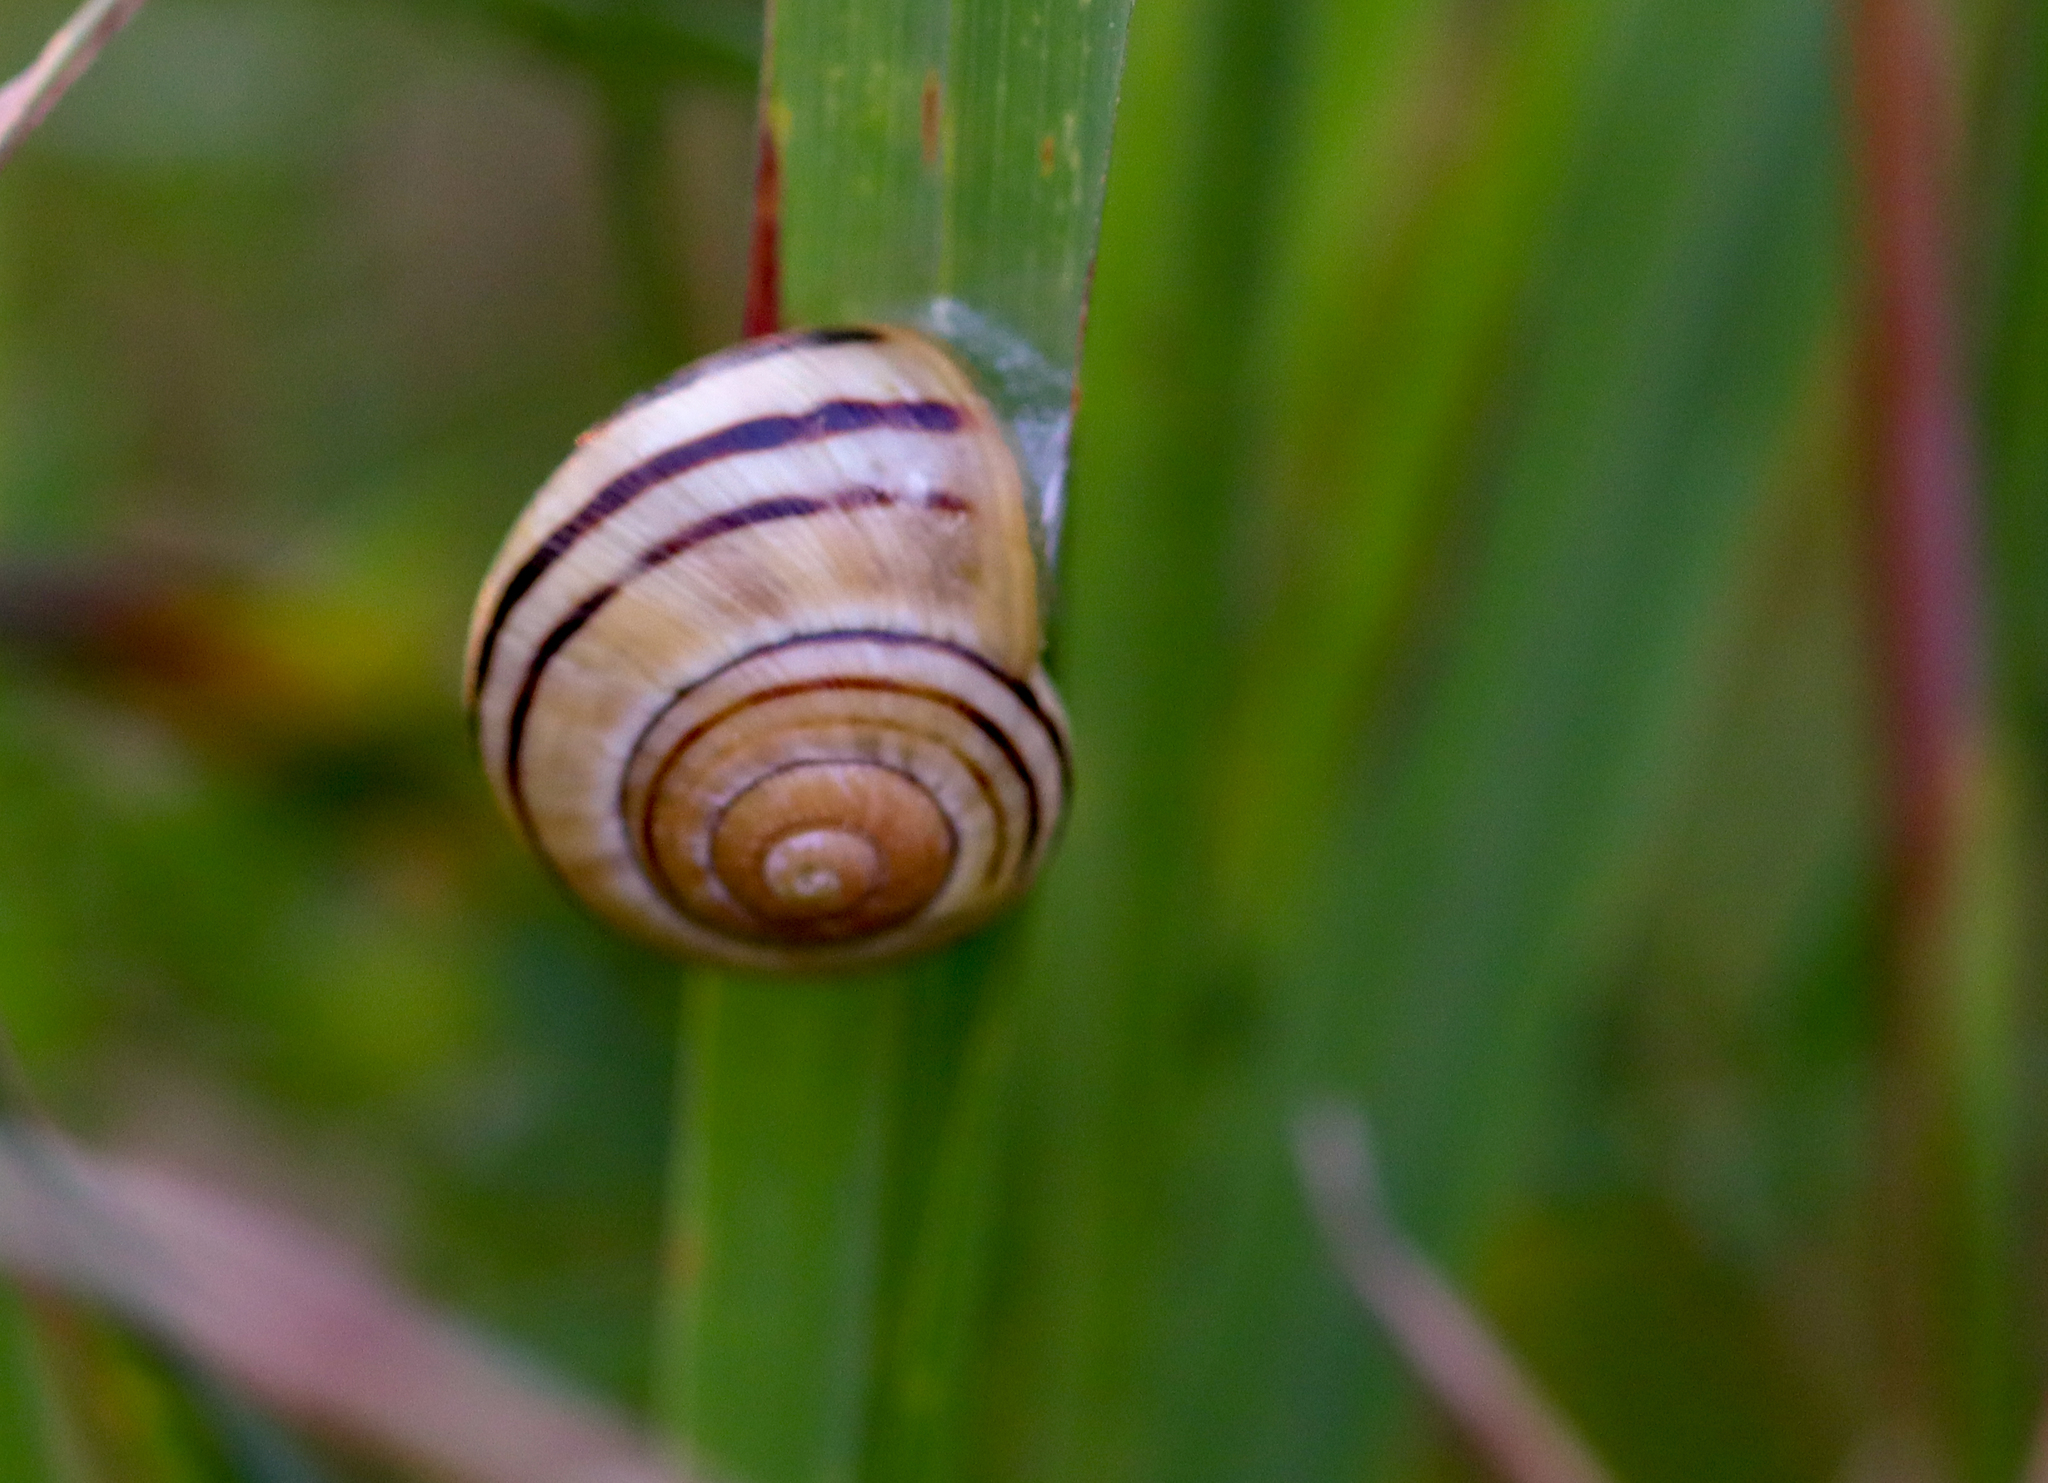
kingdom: Animalia
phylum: Mollusca
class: Gastropoda
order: Stylommatophora
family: Helicidae
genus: Cepaea
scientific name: Cepaea
